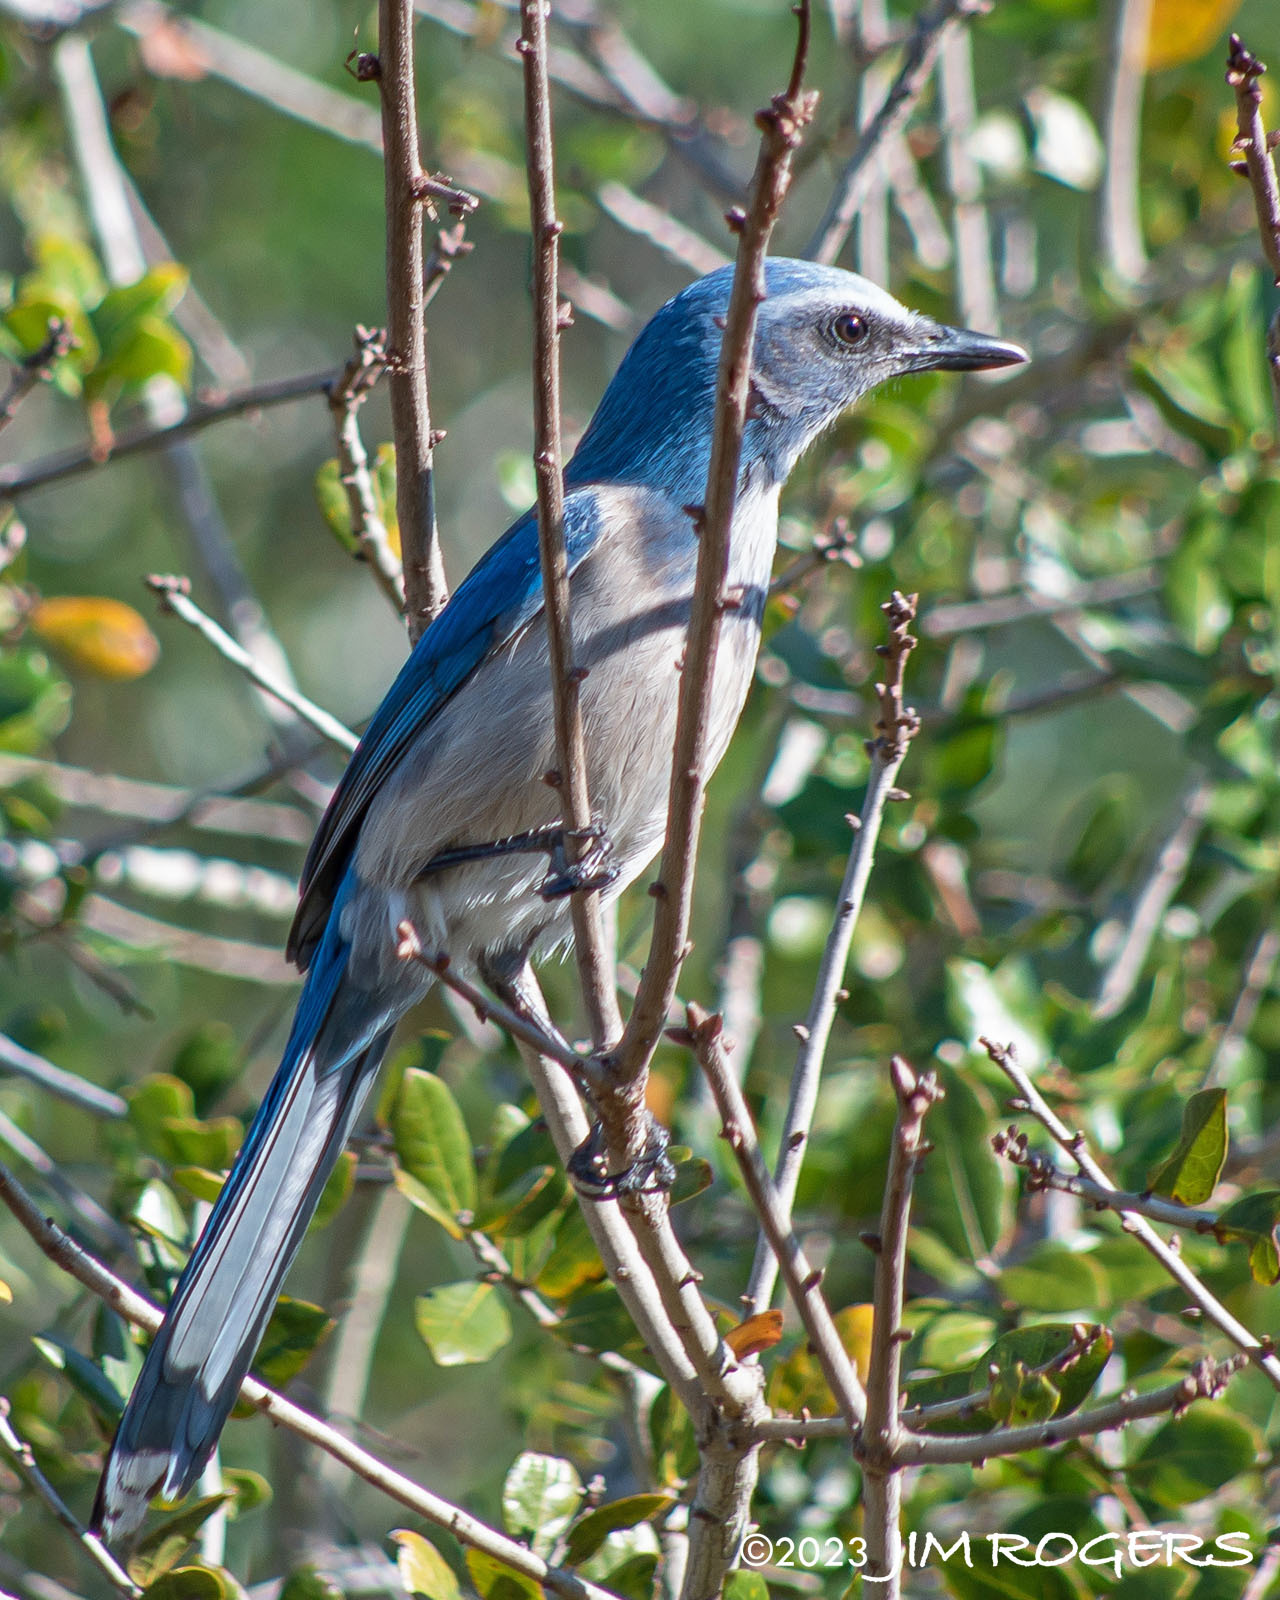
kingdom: Animalia
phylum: Chordata
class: Aves
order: Passeriformes
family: Corvidae
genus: Aphelocoma
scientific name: Aphelocoma coerulescens
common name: Florida scrub jay
